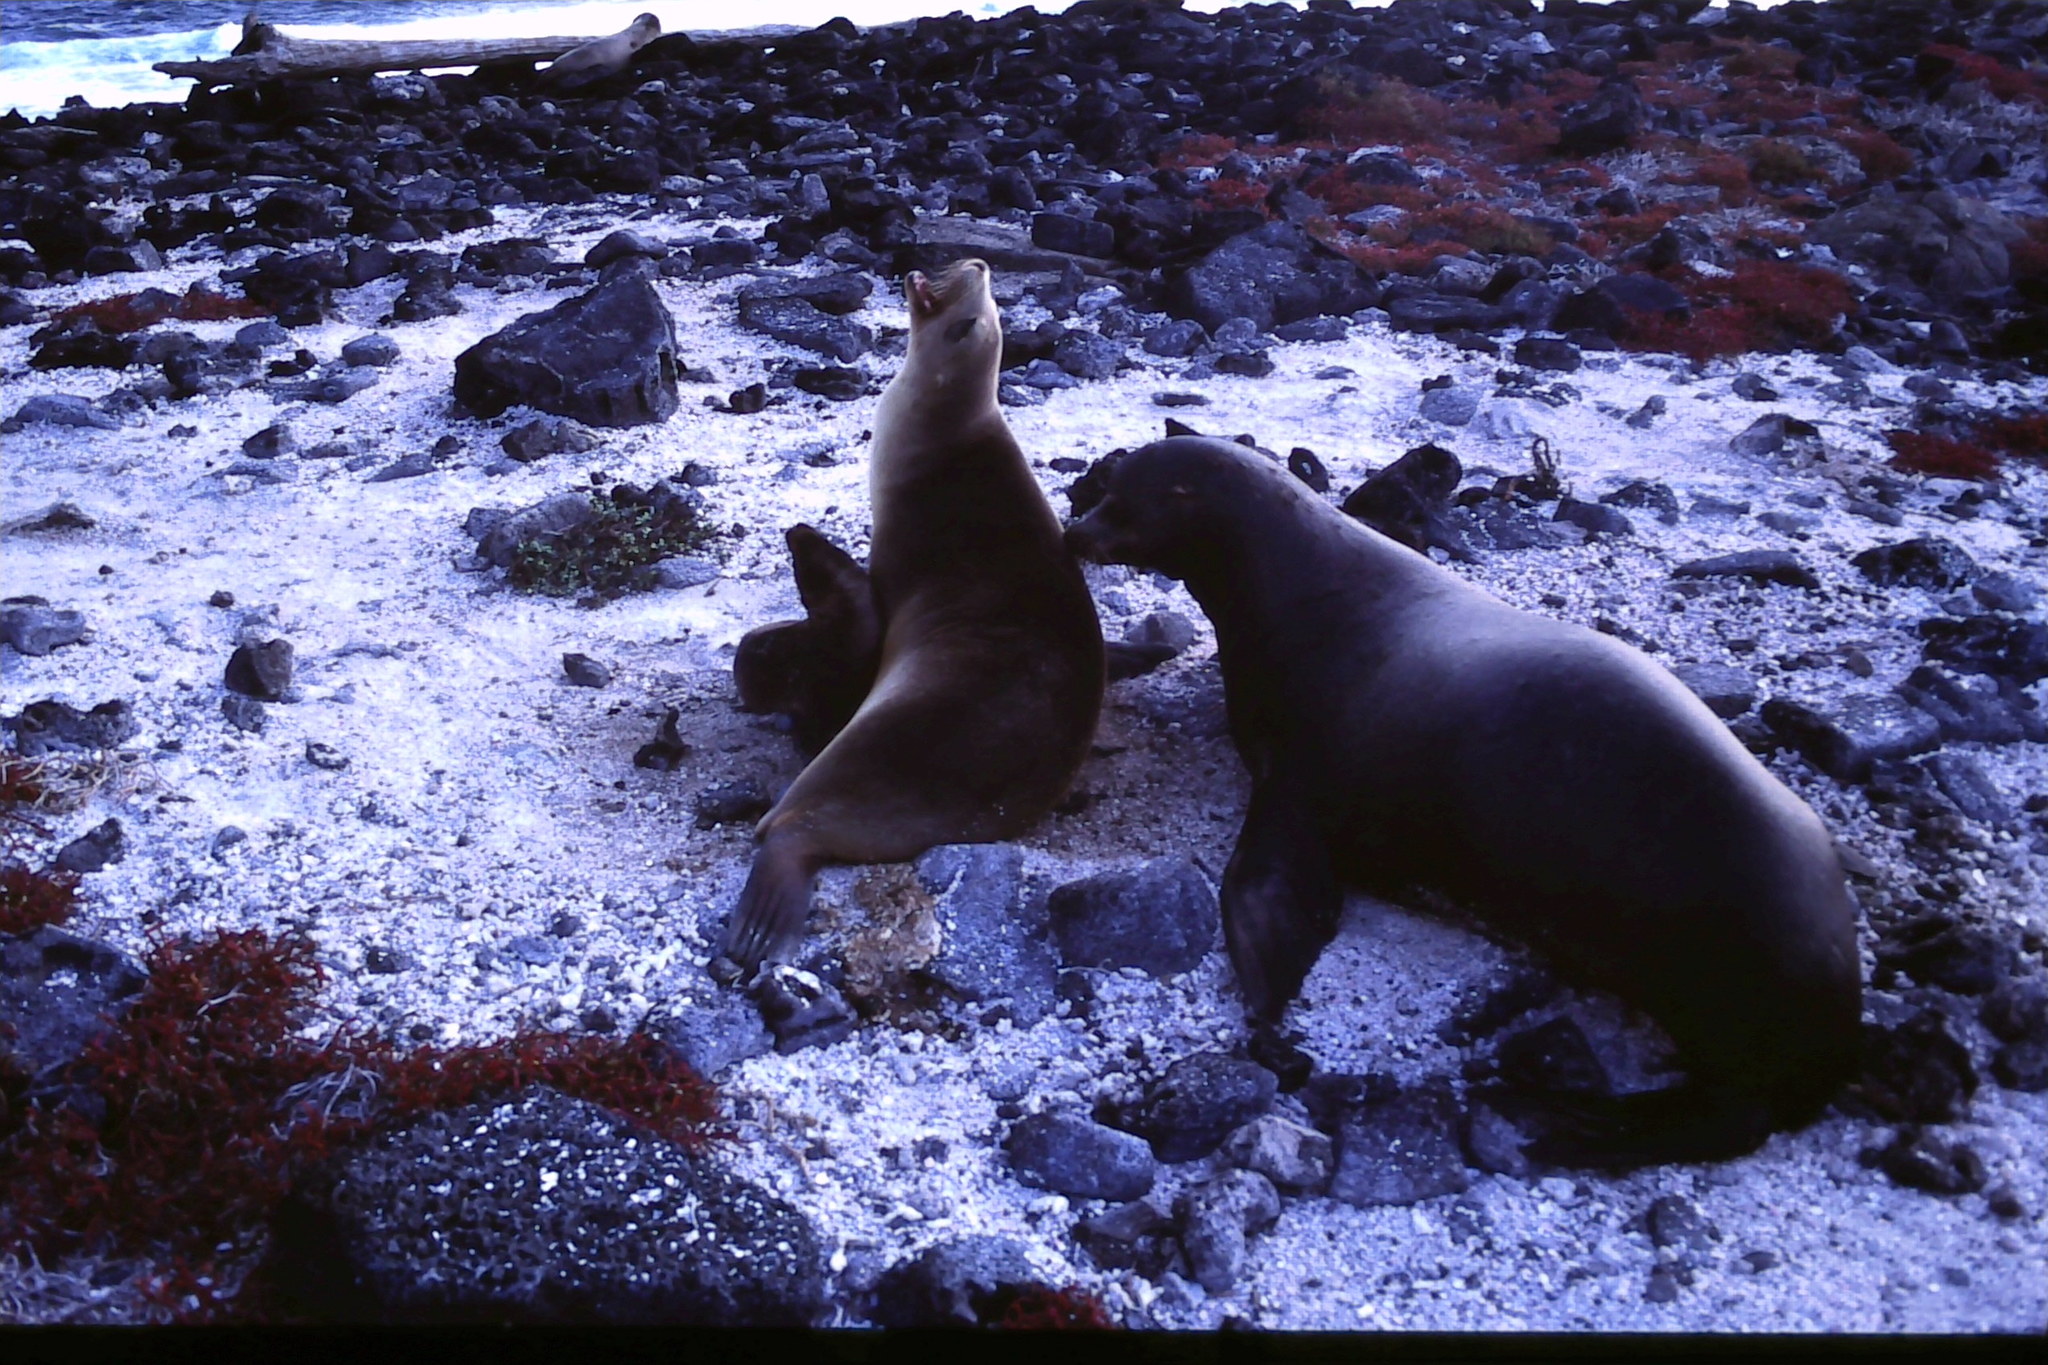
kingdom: Animalia
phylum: Chordata
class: Mammalia
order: Carnivora
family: Otariidae
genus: Zalophus
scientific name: Zalophus wollebaeki
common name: Galapagos sea lion
